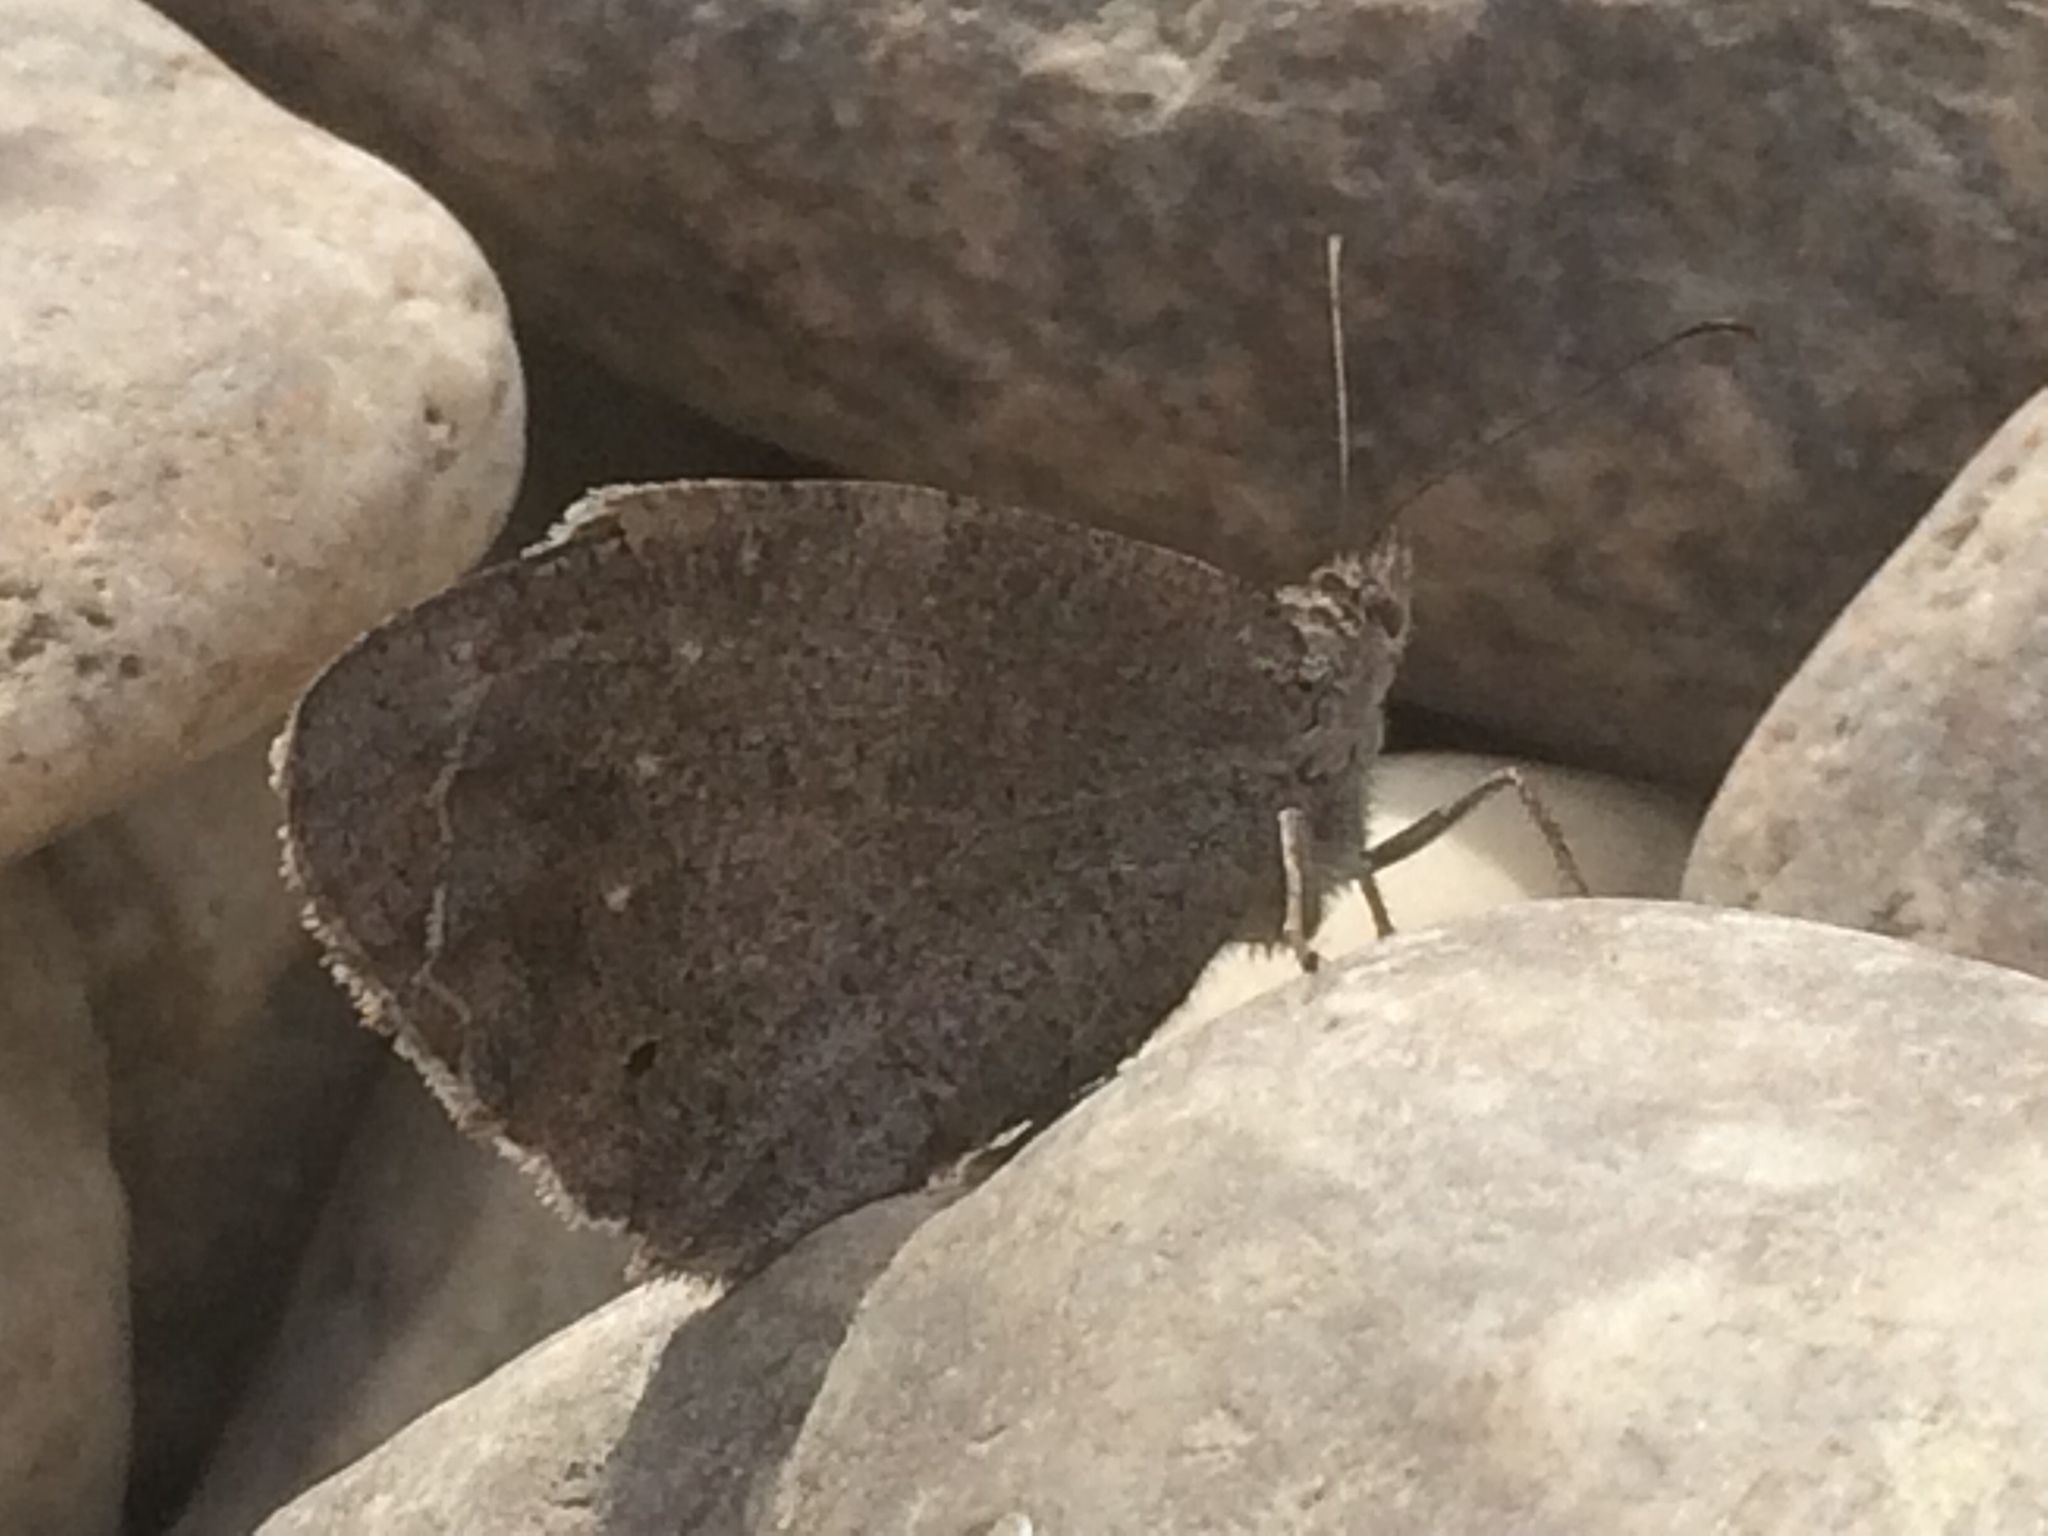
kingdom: Animalia
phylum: Arthropoda
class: Insecta
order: Lepidoptera
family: Nymphalidae
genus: Hipparchia
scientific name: Hipparchia statilinus
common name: Tree grayling
